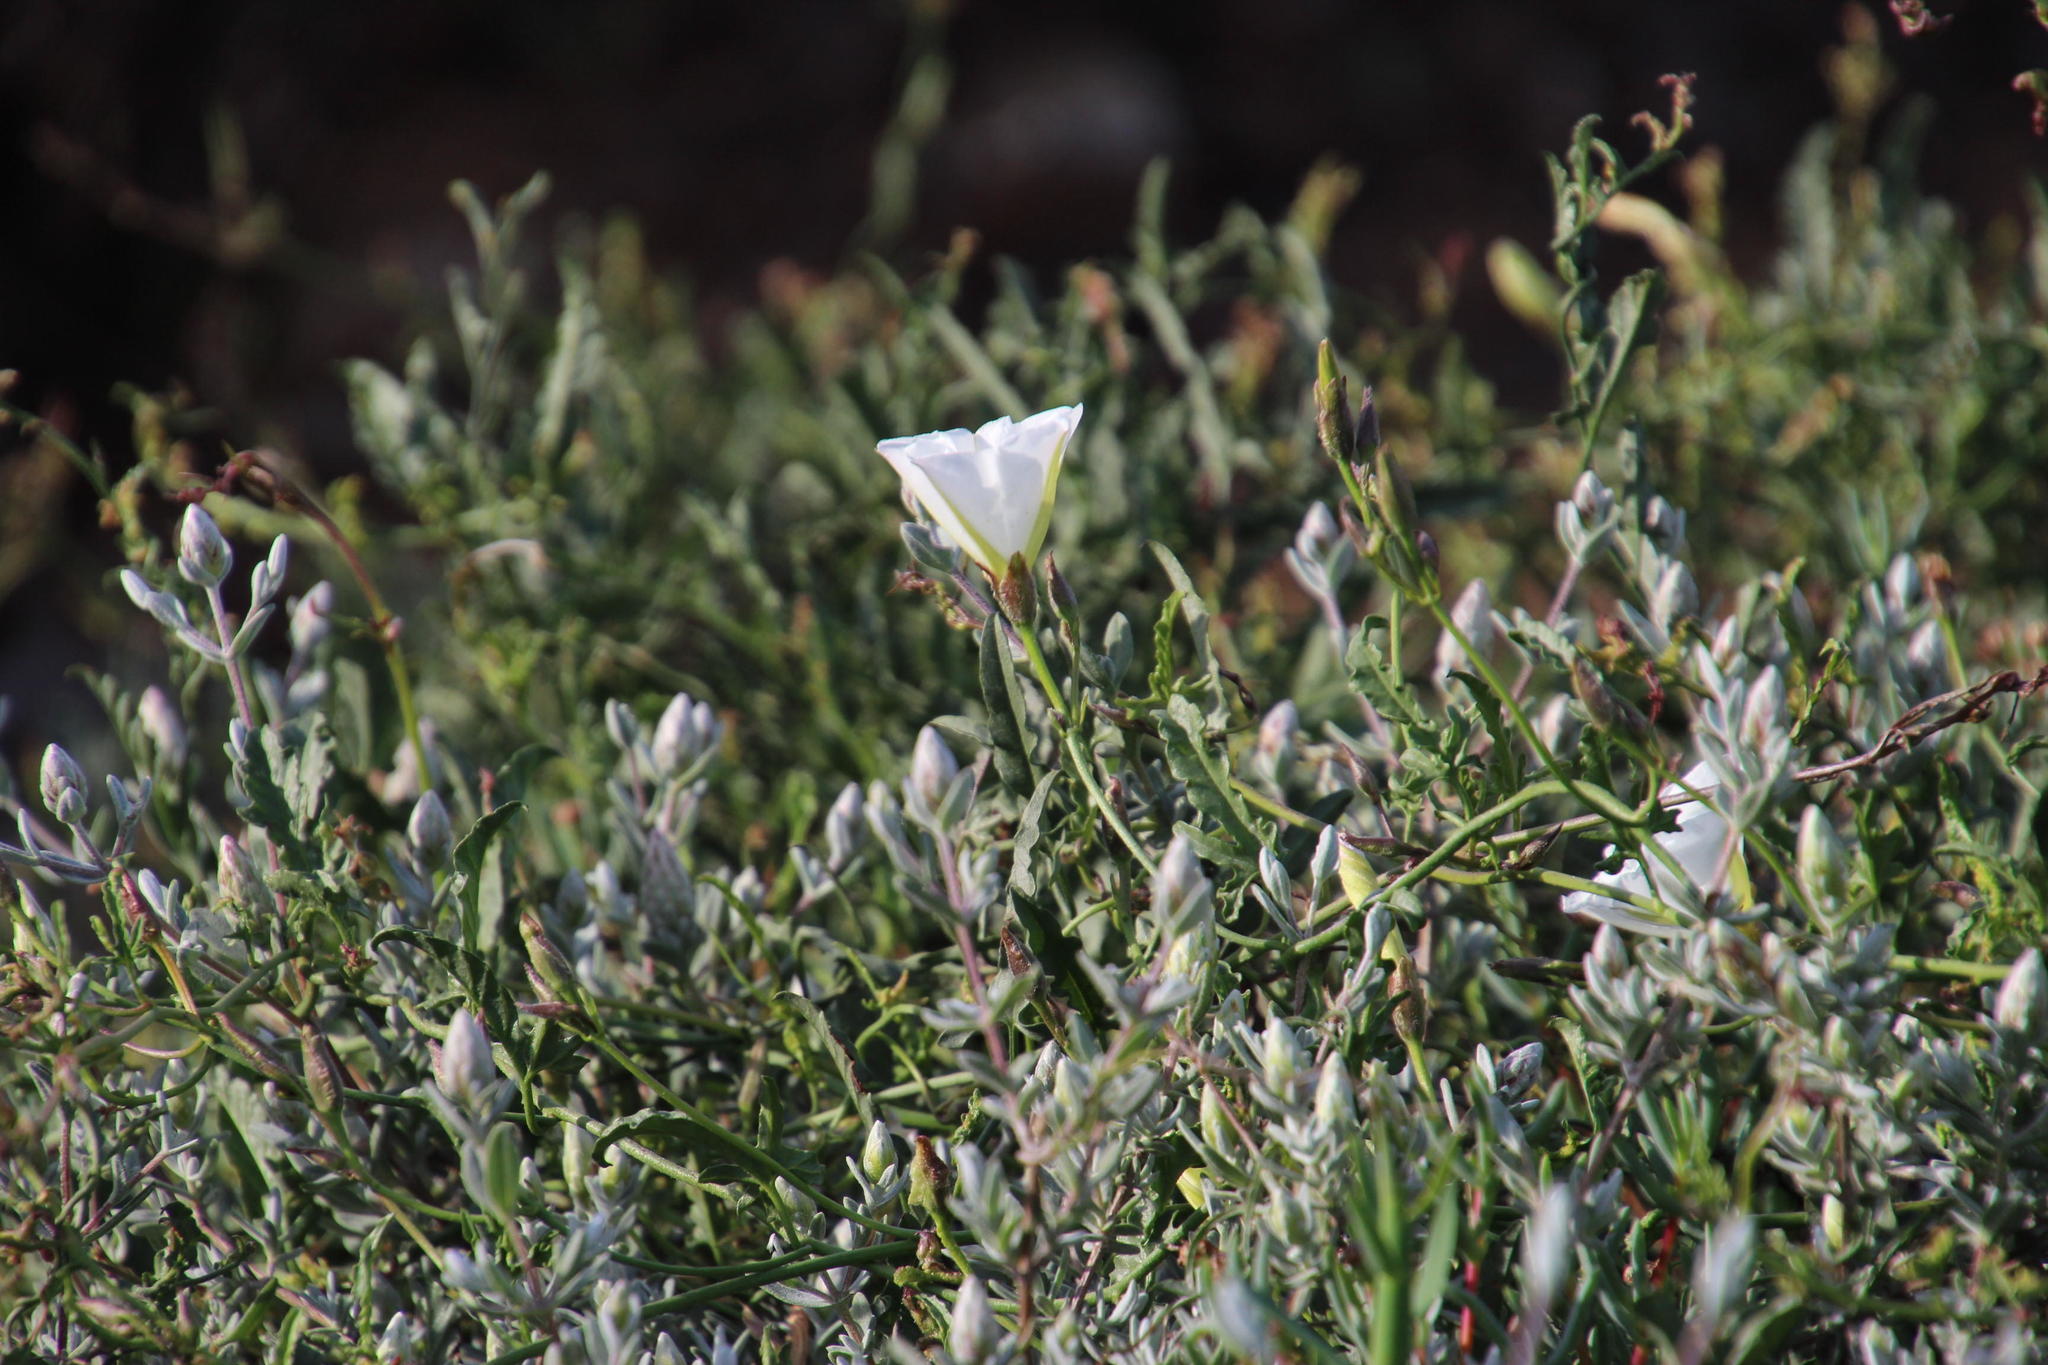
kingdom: Plantae
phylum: Tracheophyta
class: Magnoliopsida
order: Solanales
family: Convolvulaceae
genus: Convolvulus
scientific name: Convolvulus capensis
